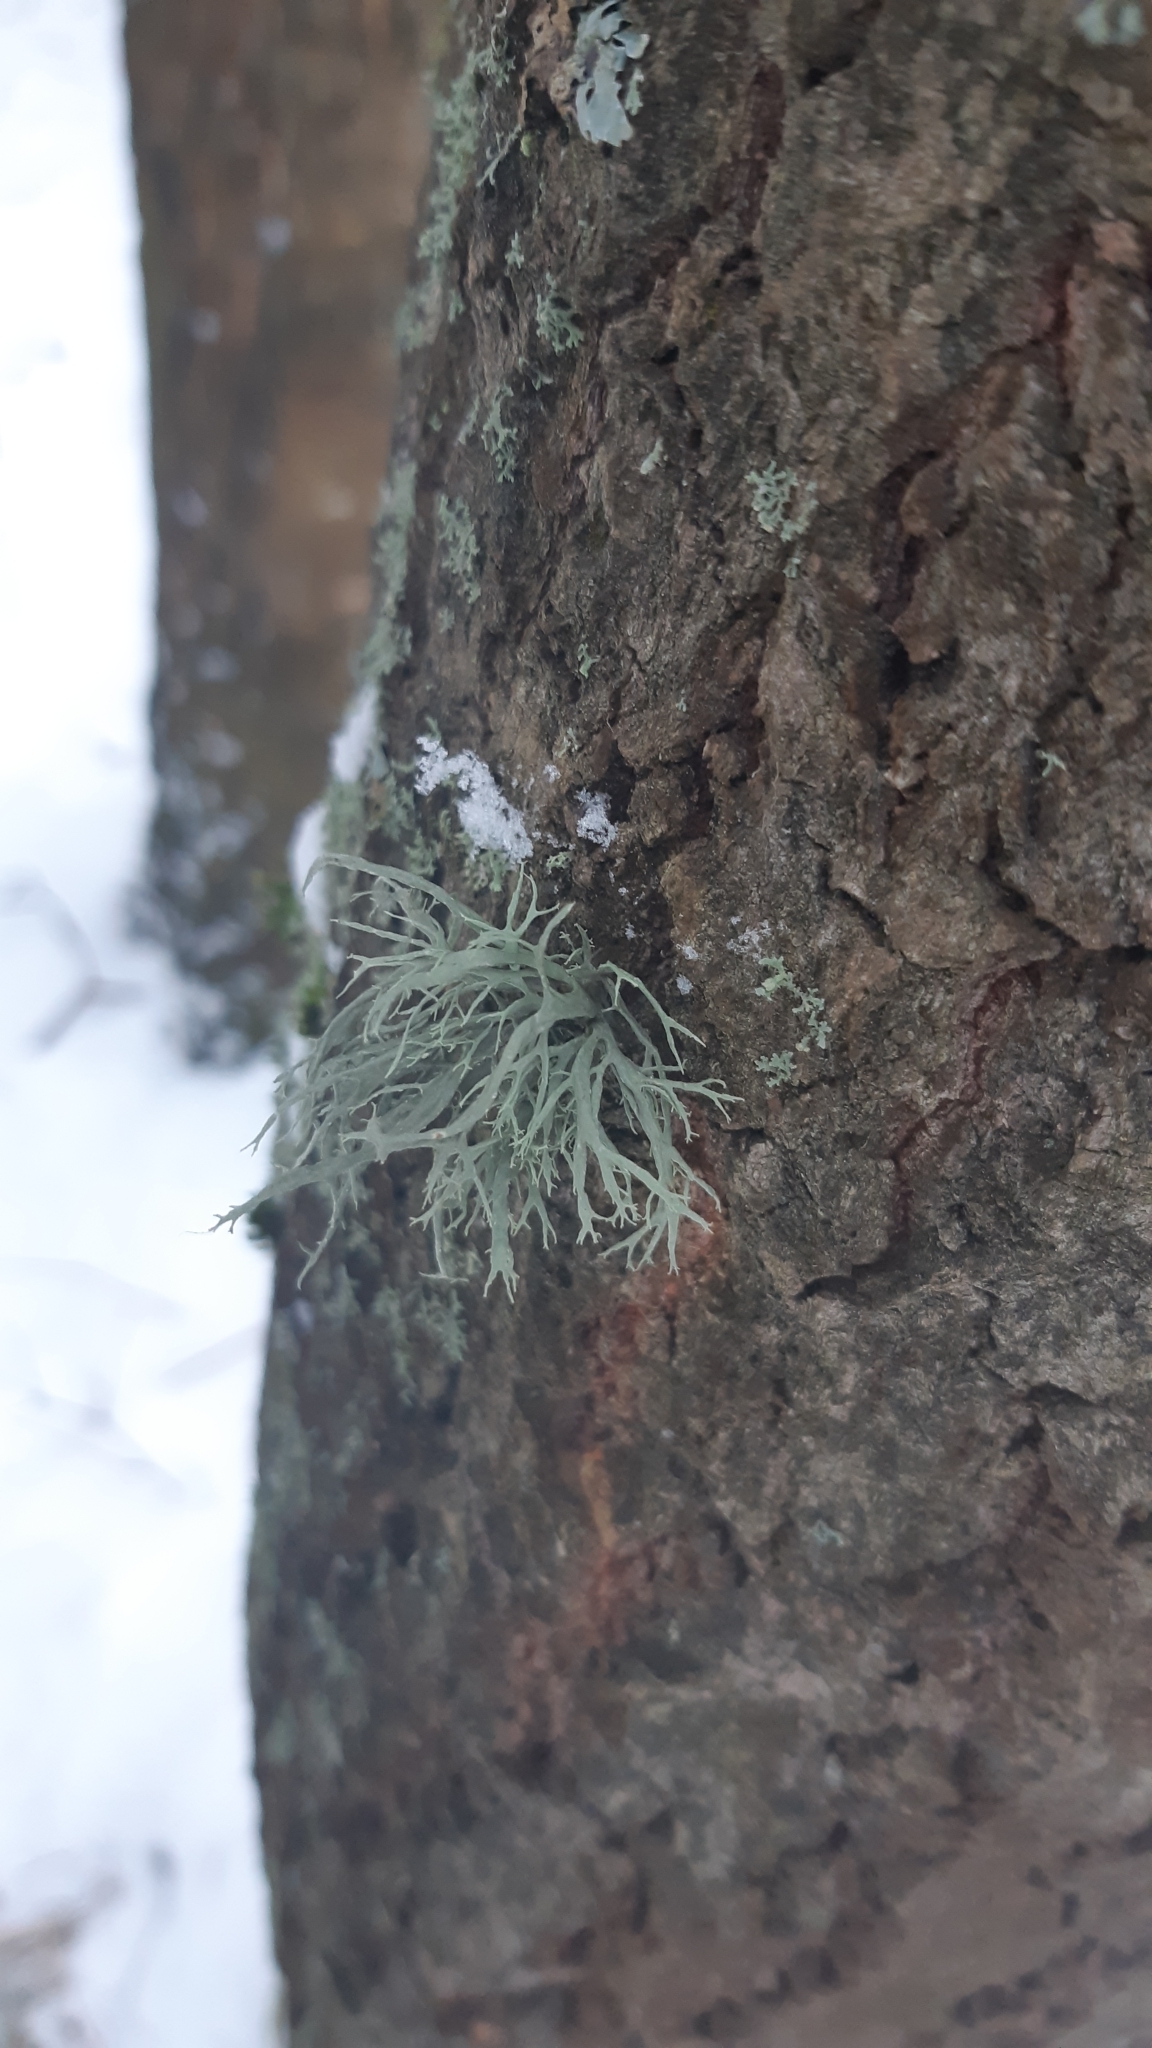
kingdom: Fungi
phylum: Ascomycota
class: Lecanoromycetes
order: Lecanorales
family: Ramalinaceae
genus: Ramalina
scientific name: Ramalina farinacea
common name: Farinose cartilage lichen
